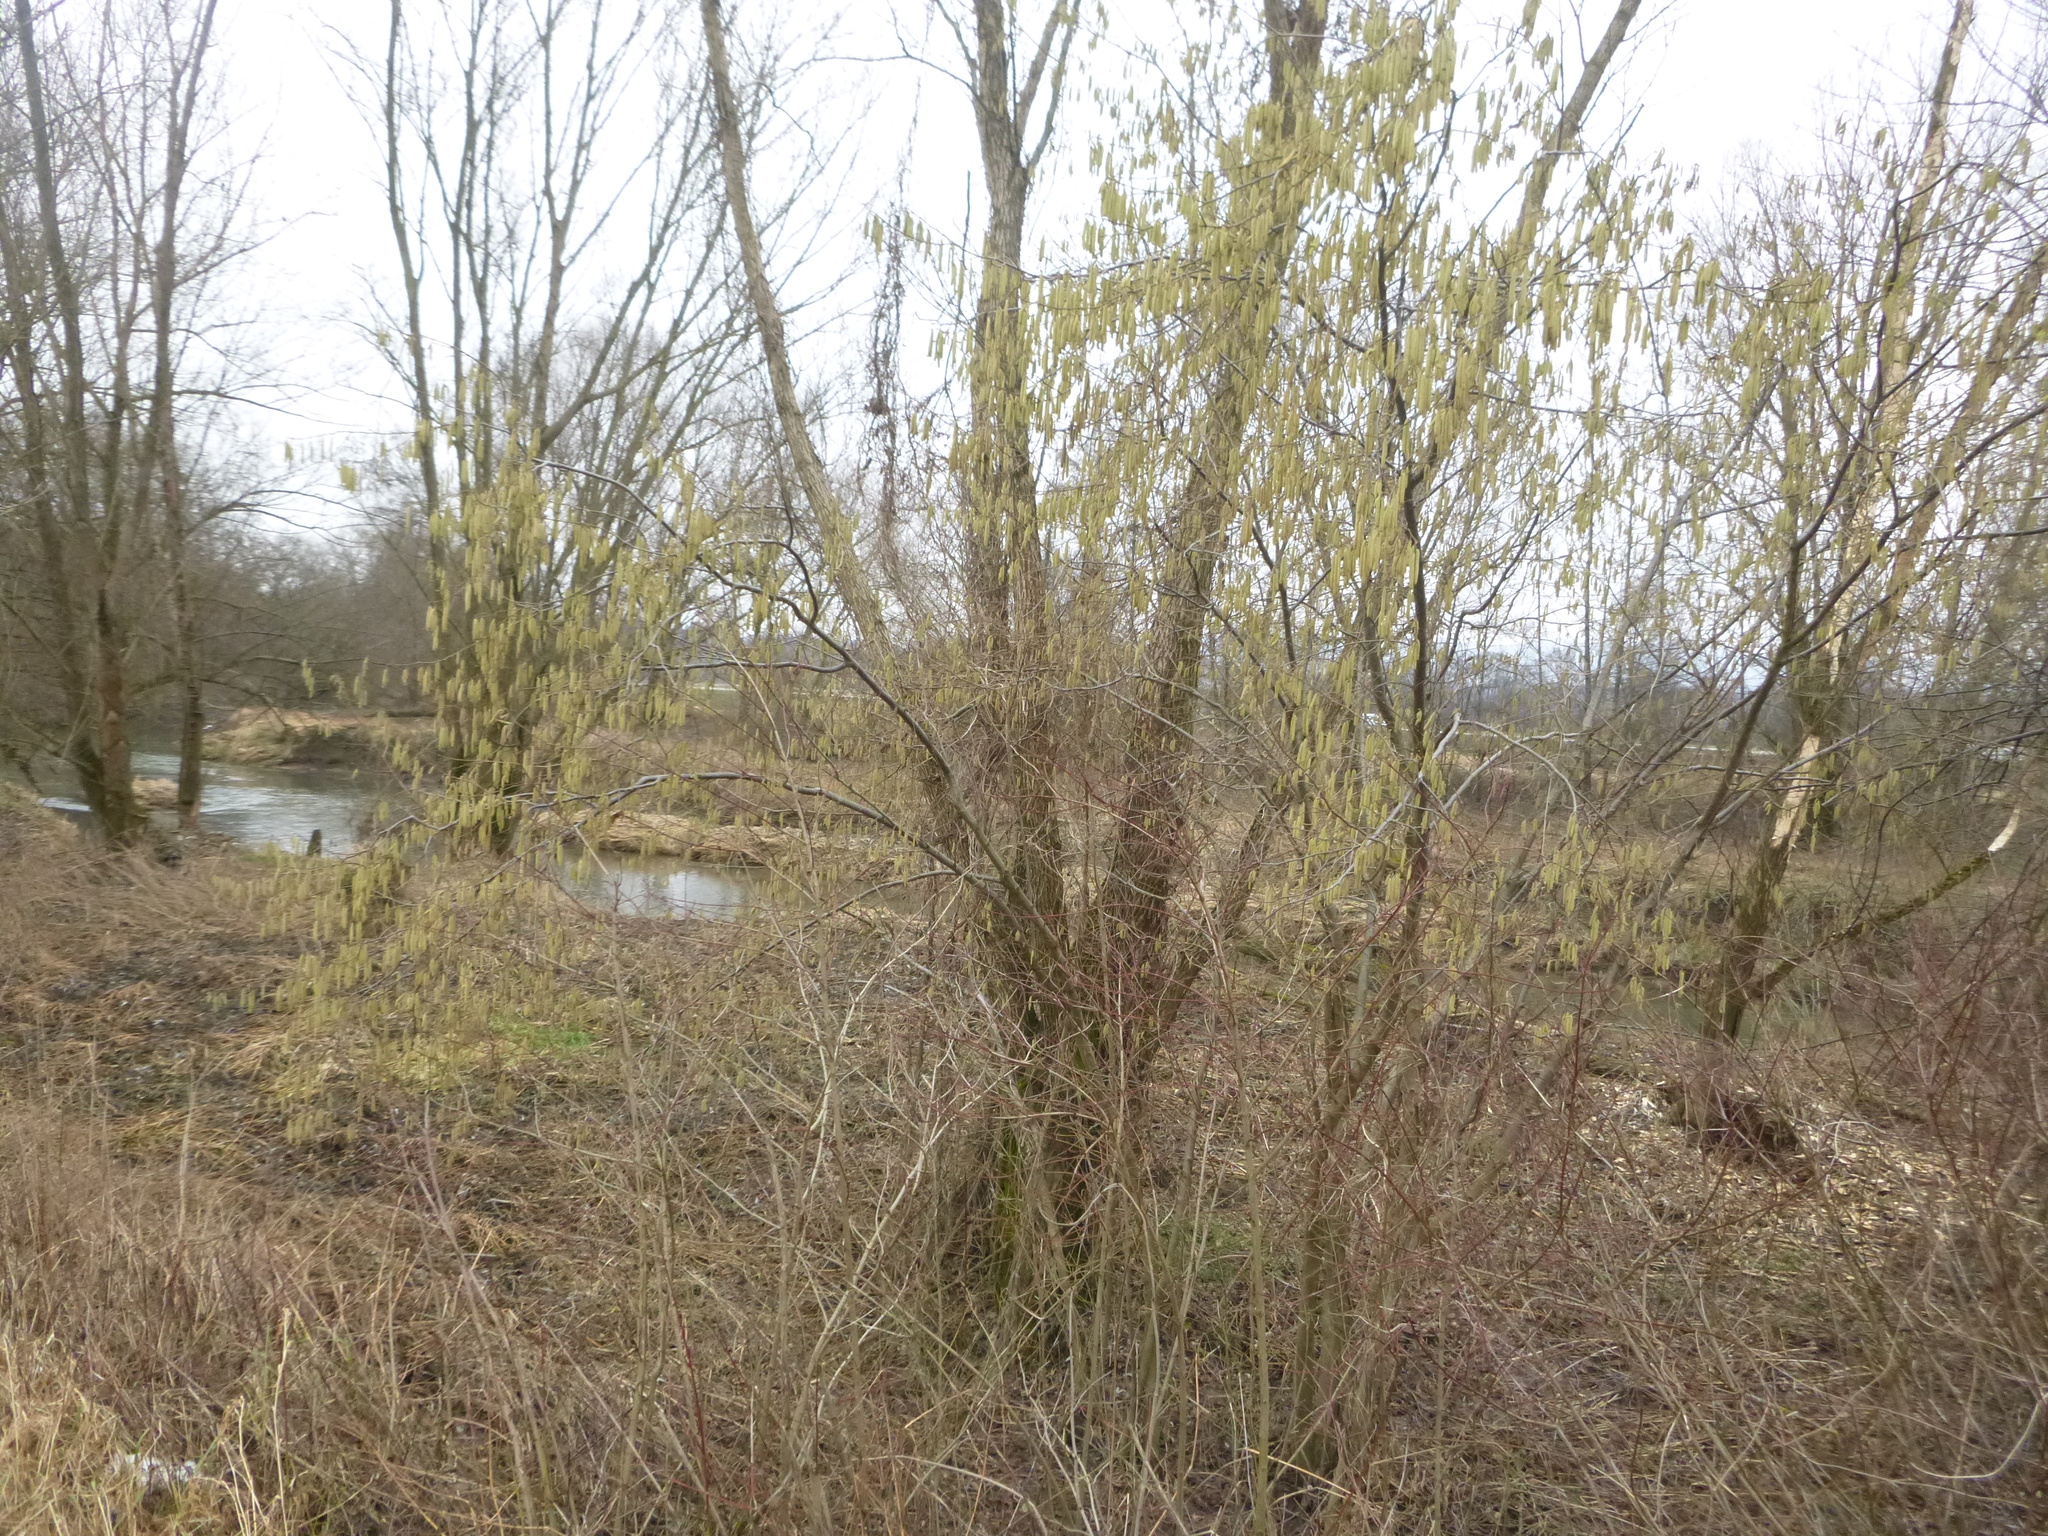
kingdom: Plantae
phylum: Tracheophyta
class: Magnoliopsida
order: Fagales
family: Betulaceae
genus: Corylus
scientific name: Corylus avellana
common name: European hazel
